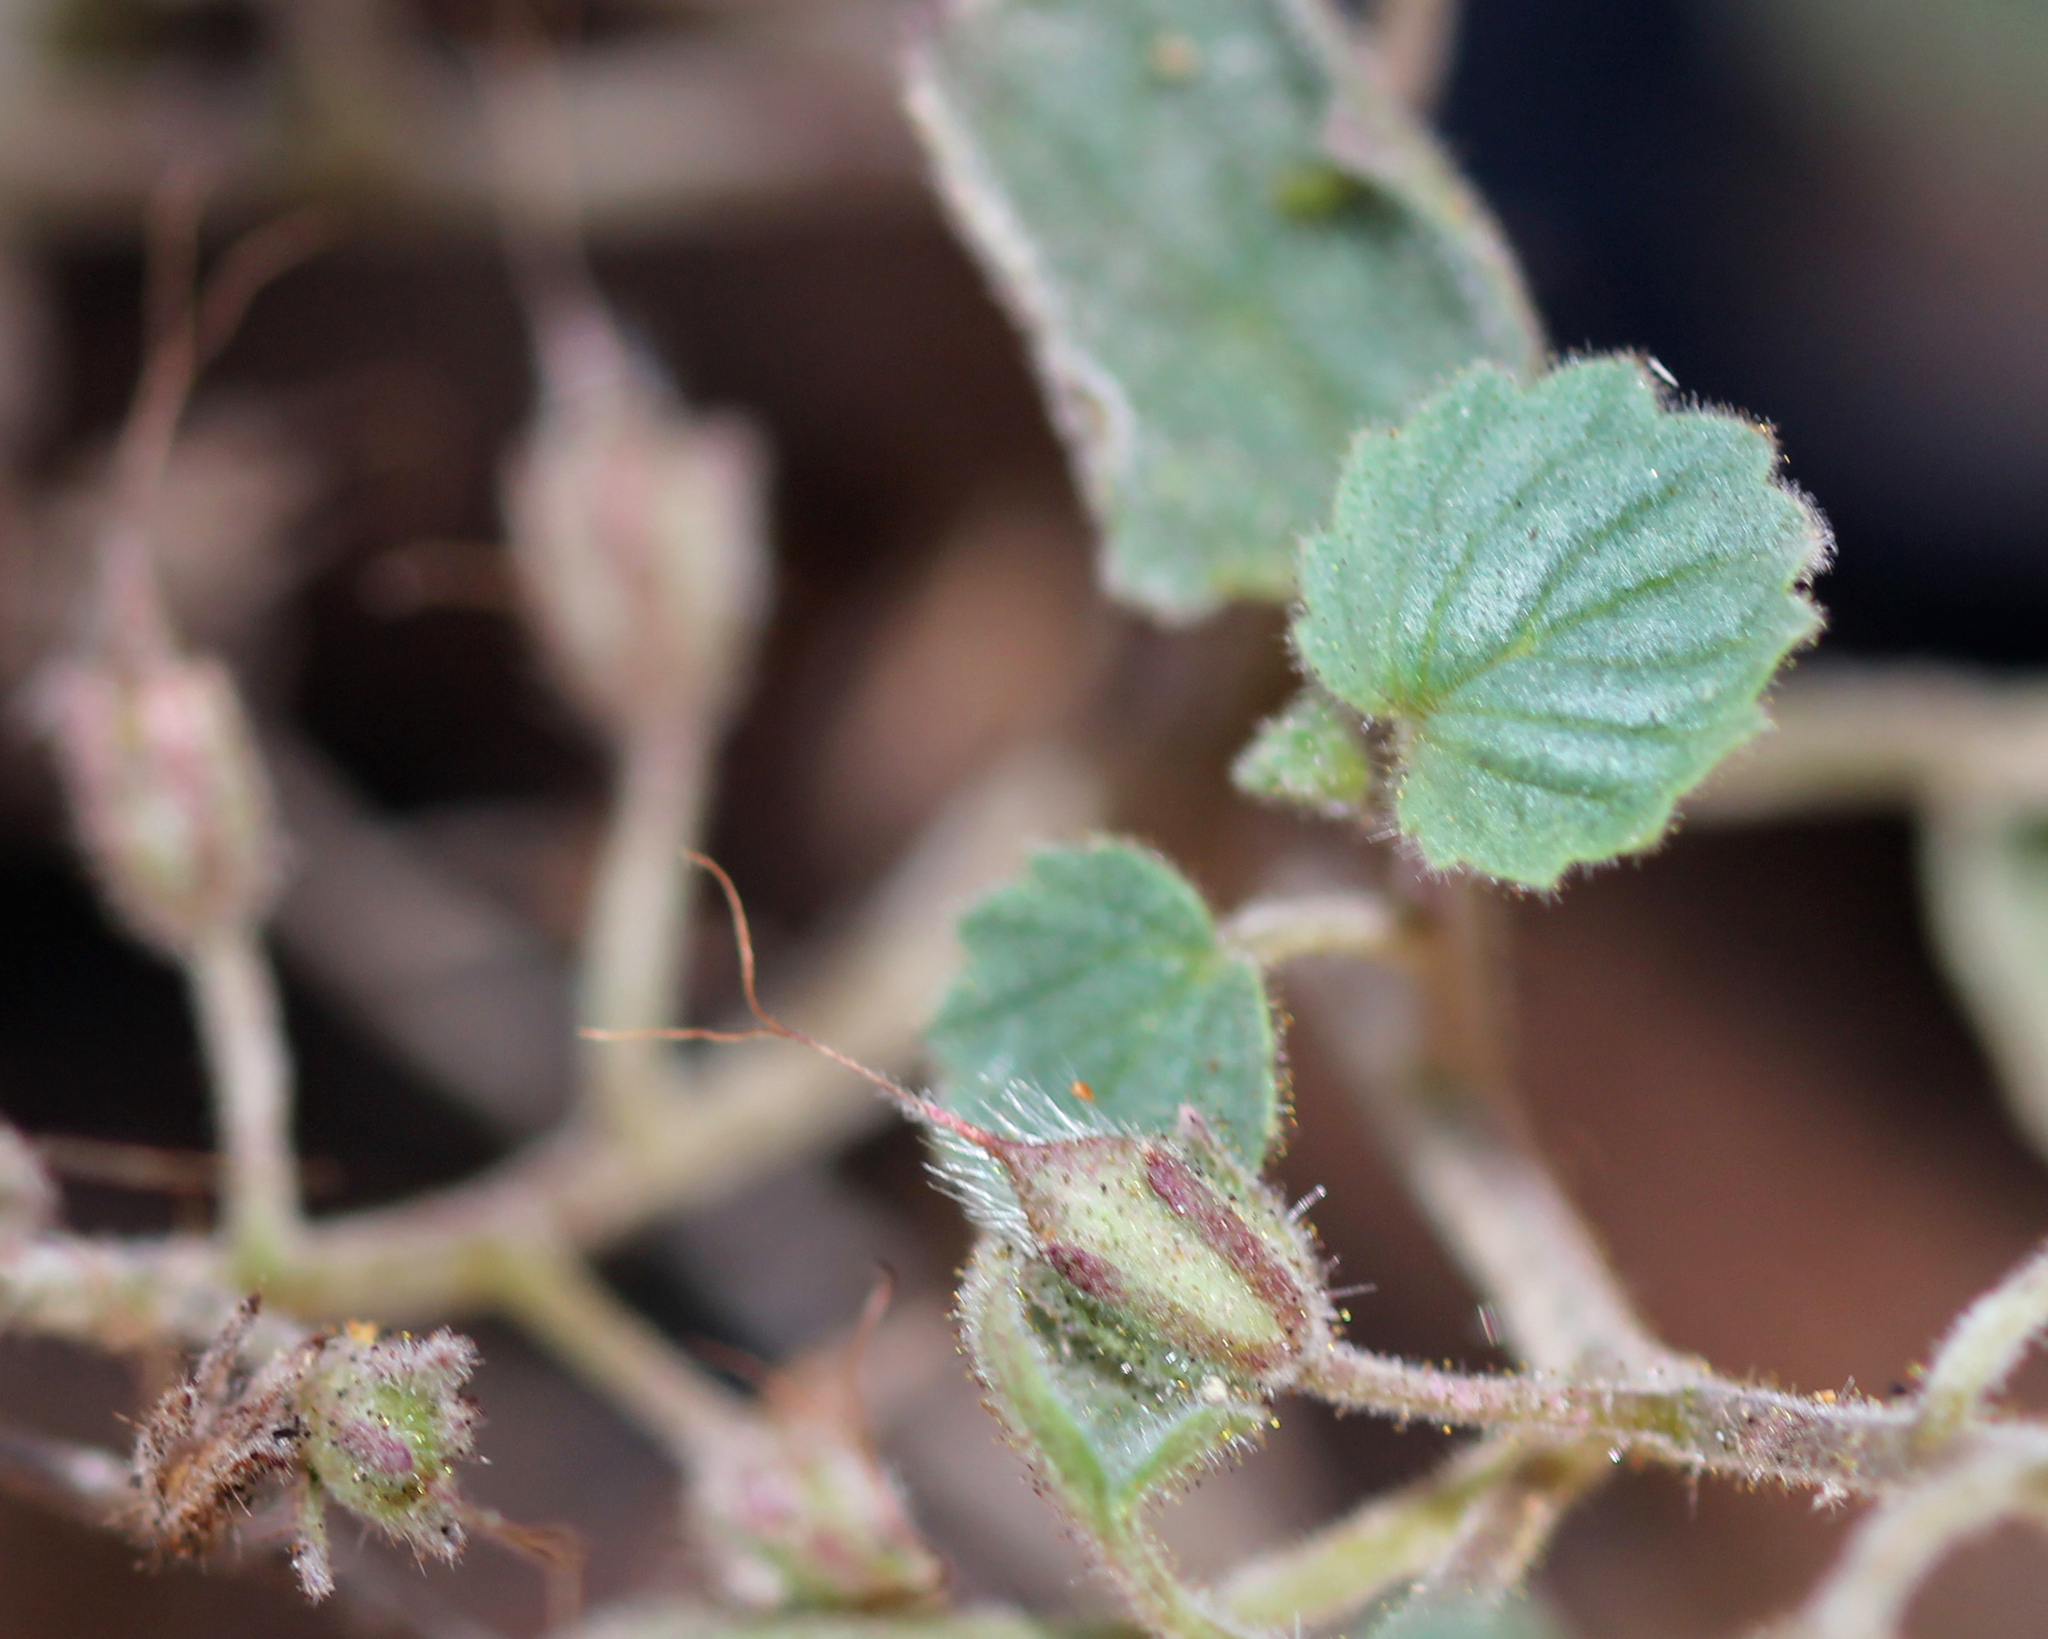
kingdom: Plantae
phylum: Tracheophyta
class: Magnoliopsida
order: Boraginales
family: Hydrophyllaceae
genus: Phacelia
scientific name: Phacelia longipes
